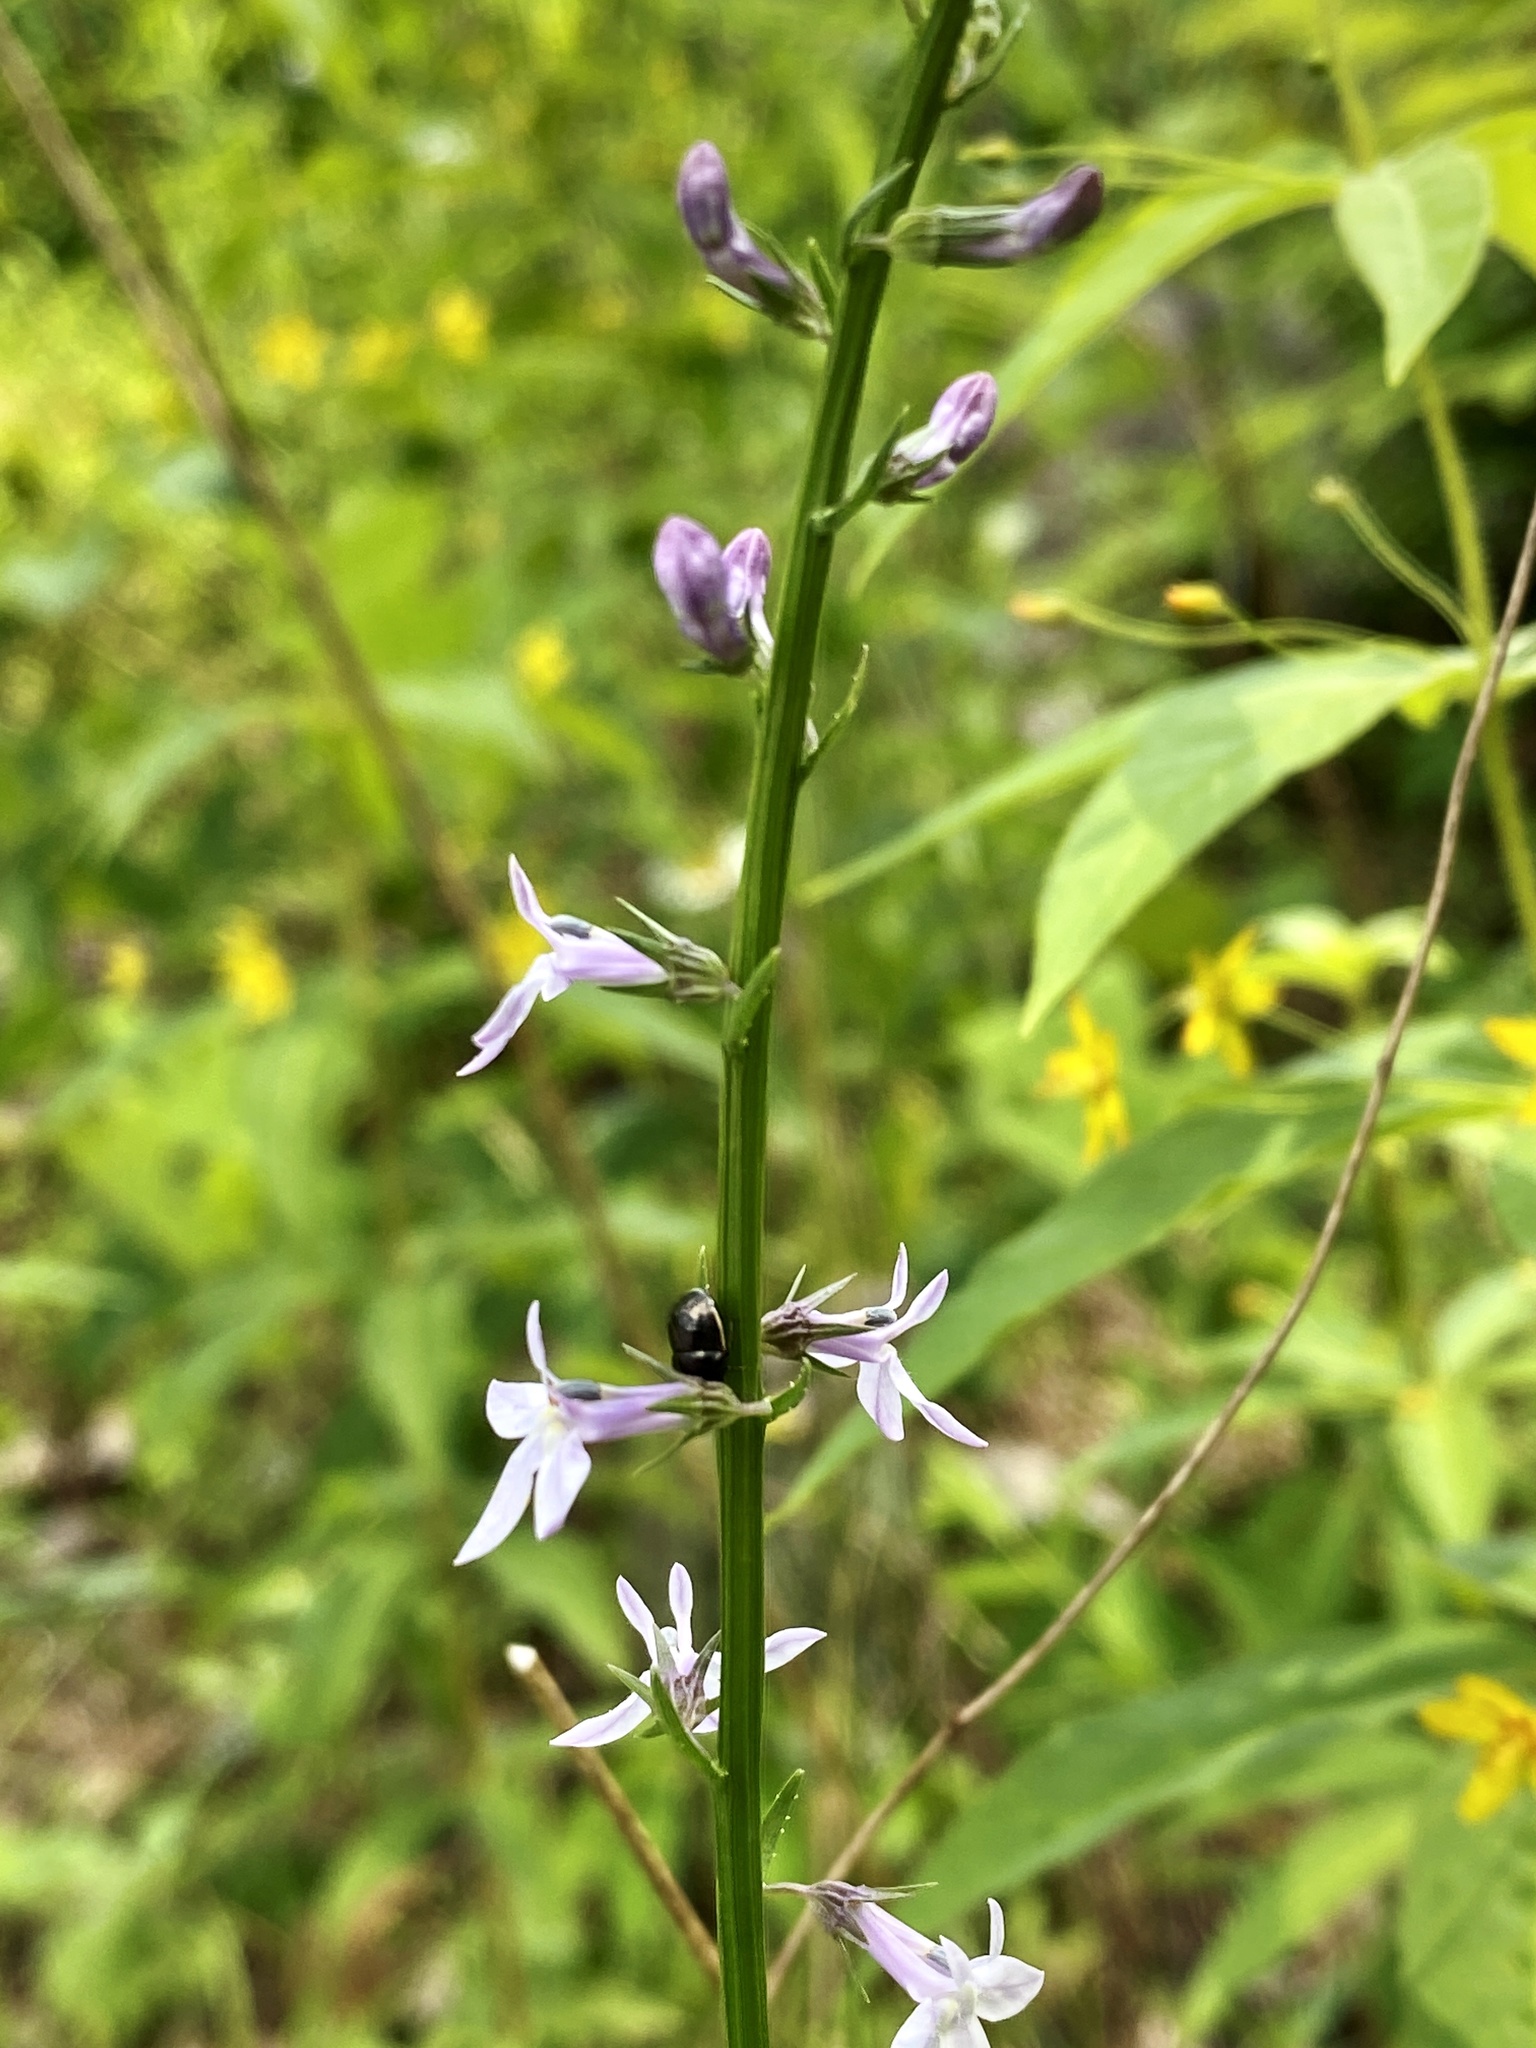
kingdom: Plantae
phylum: Tracheophyta
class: Magnoliopsida
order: Asterales
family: Campanulaceae
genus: Lobelia
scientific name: Lobelia spicata
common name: Pale-spike lobelia
